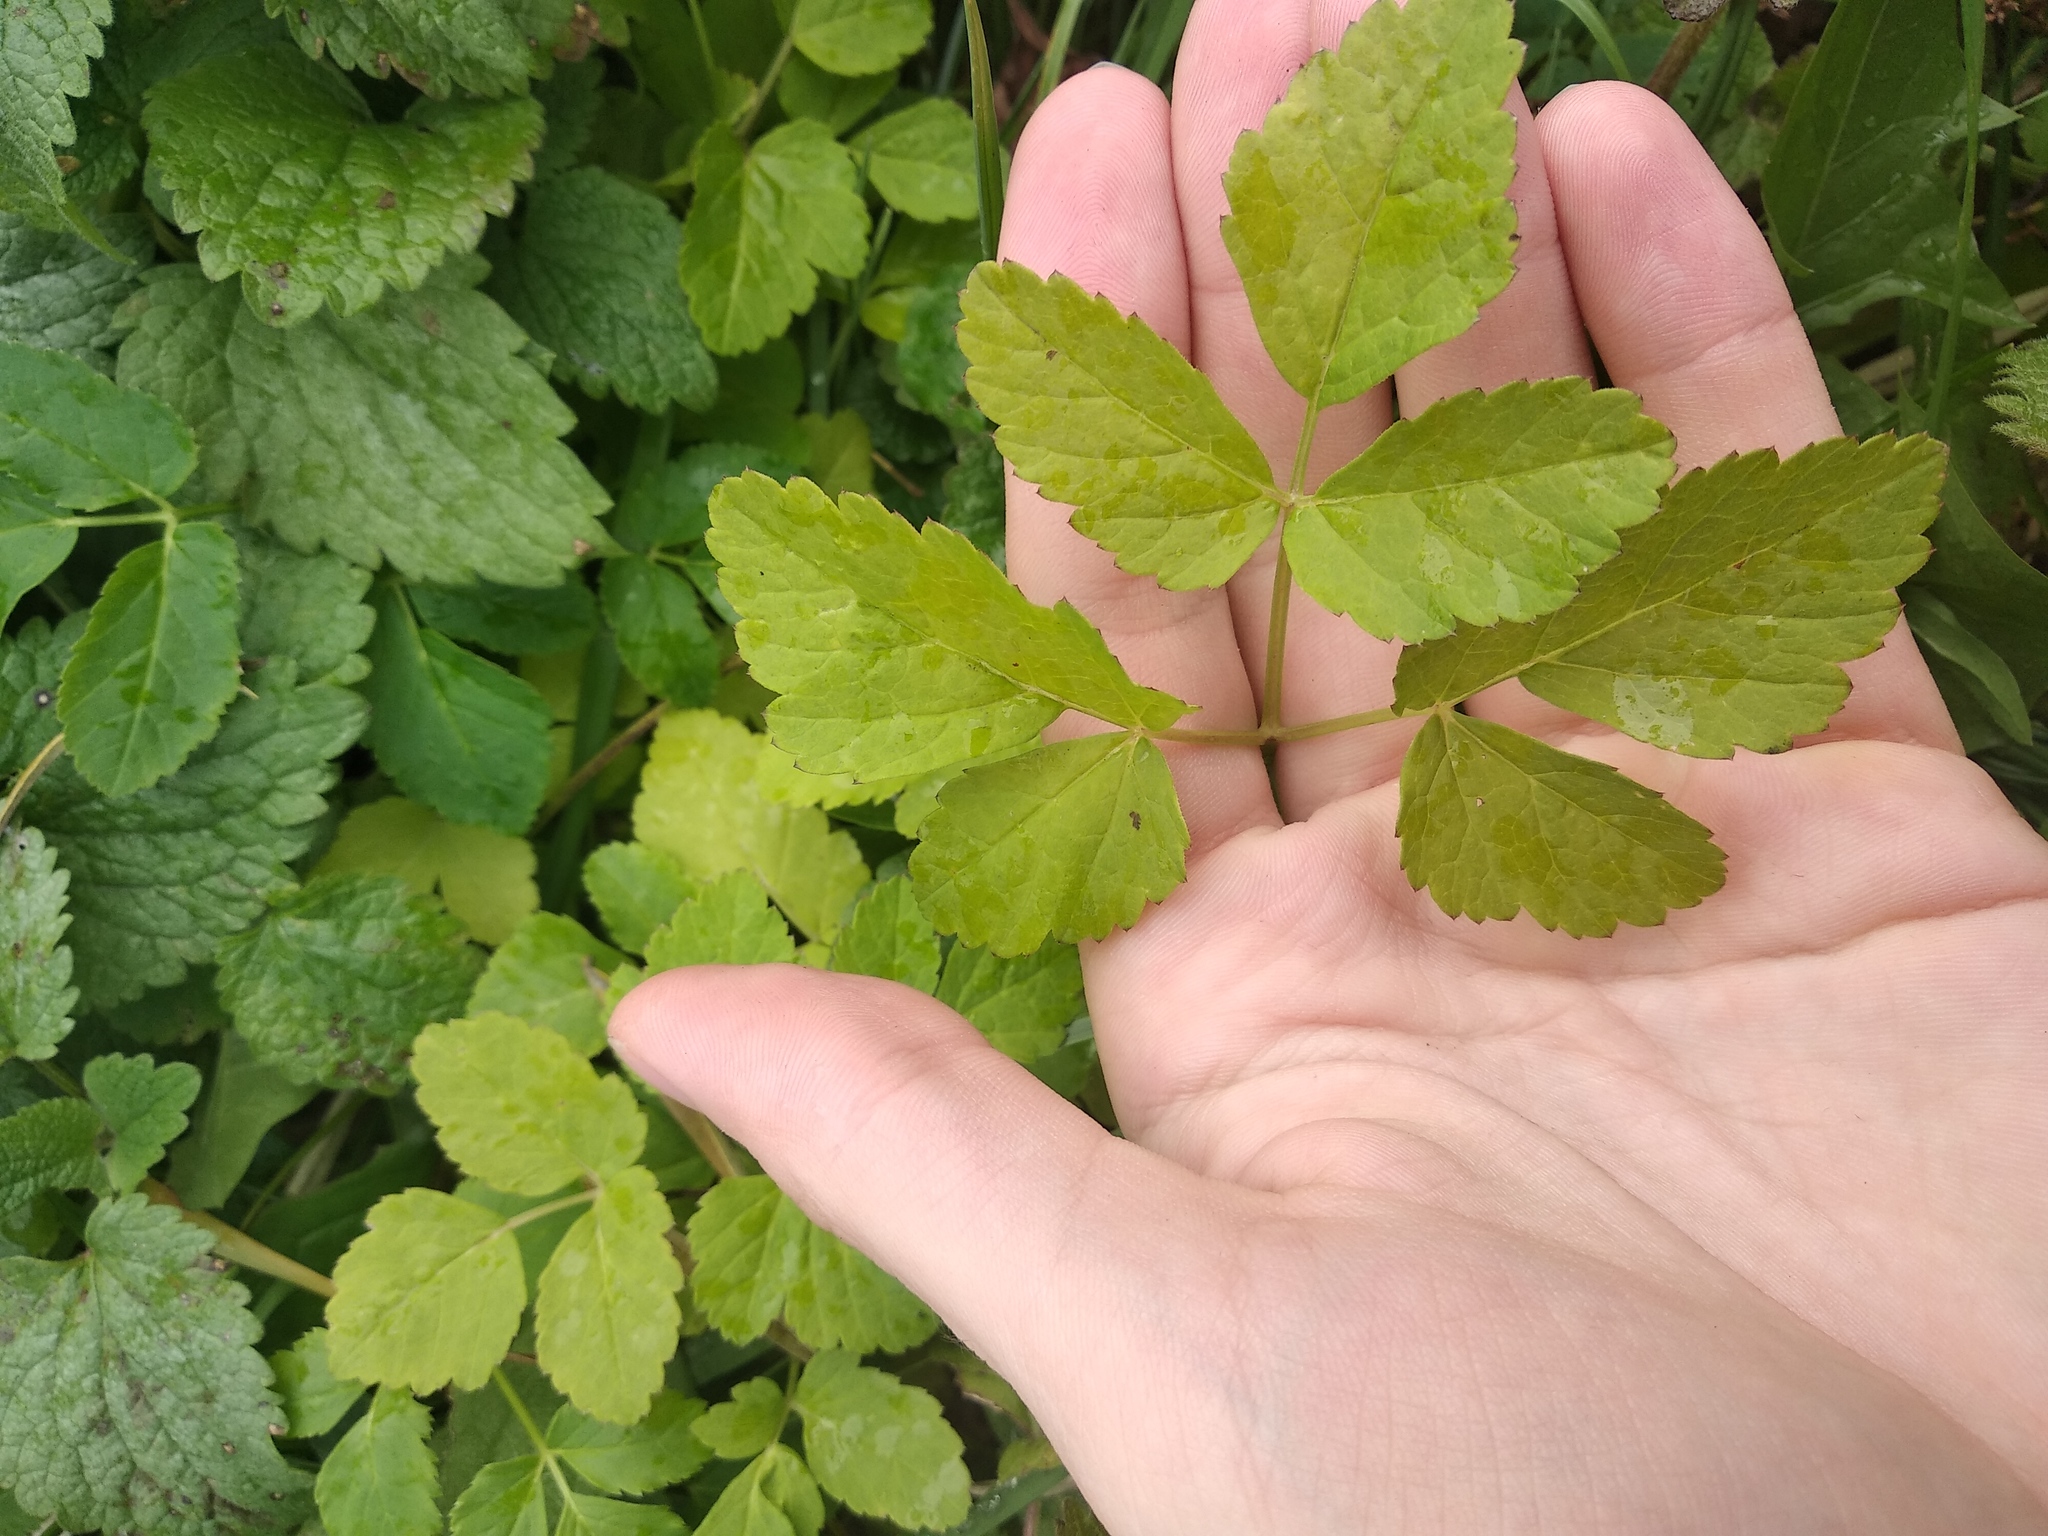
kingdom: Plantae
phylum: Tracheophyta
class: Magnoliopsida
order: Apiales
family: Apiaceae
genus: Aegopodium
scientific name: Aegopodium podagraria
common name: Ground-elder
